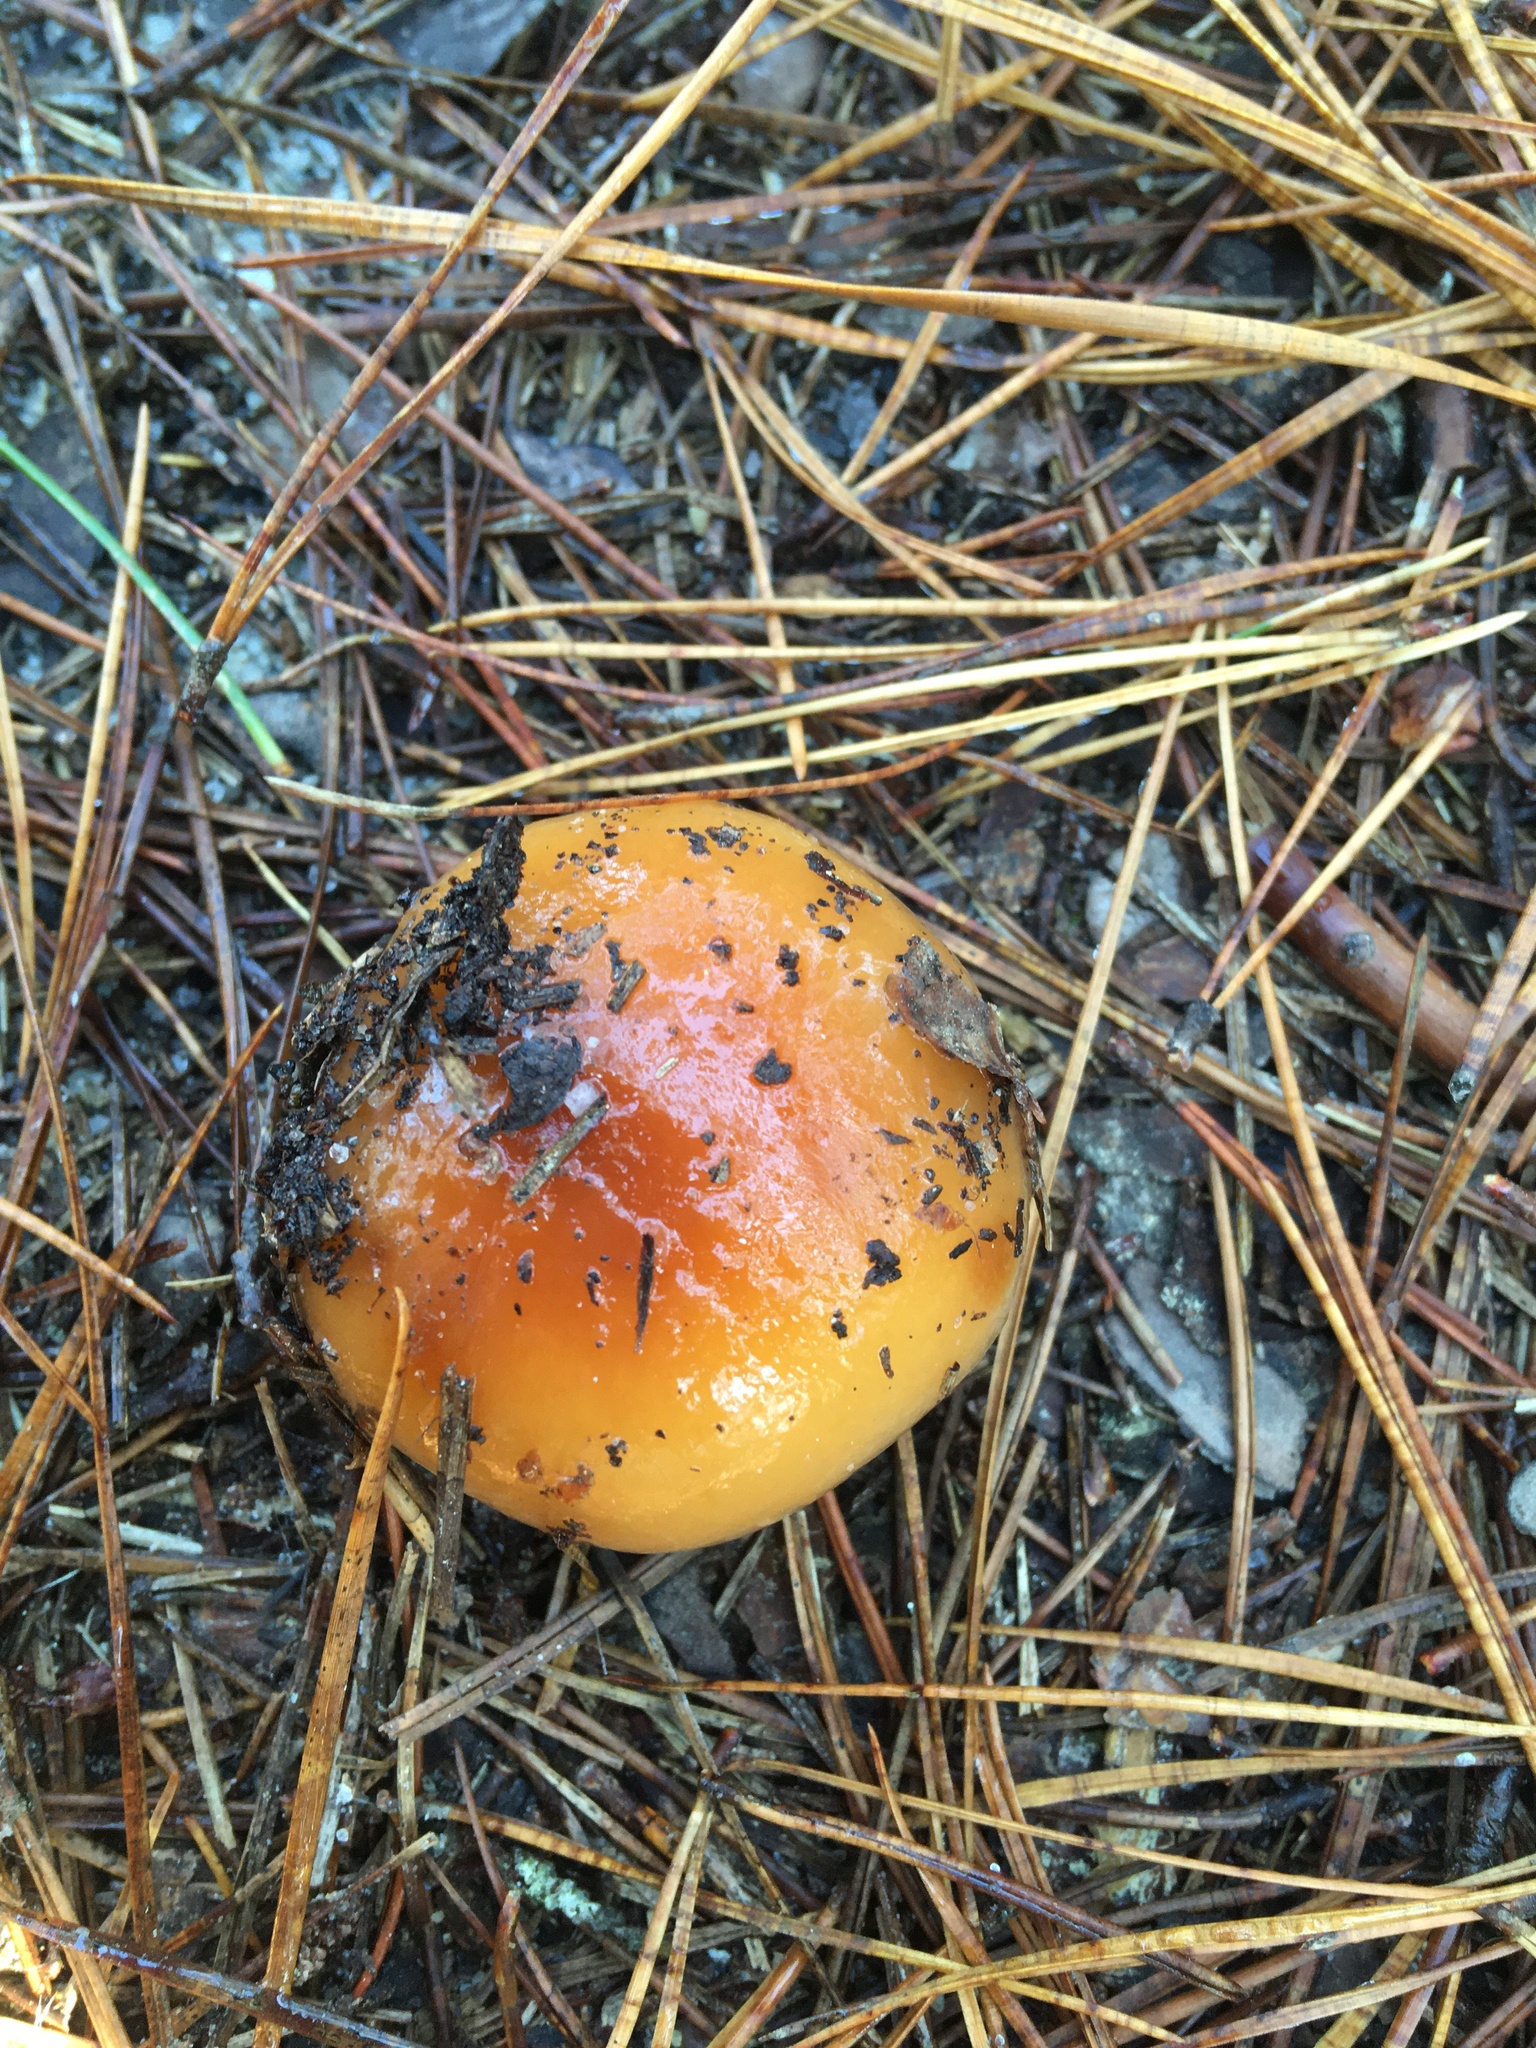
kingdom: Fungi
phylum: Basidiomycota
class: Agaricomycetes
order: Agaricales
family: Cortinariaceae
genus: Cortinarius
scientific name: Cortinarius mucosus
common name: Orange webcap
